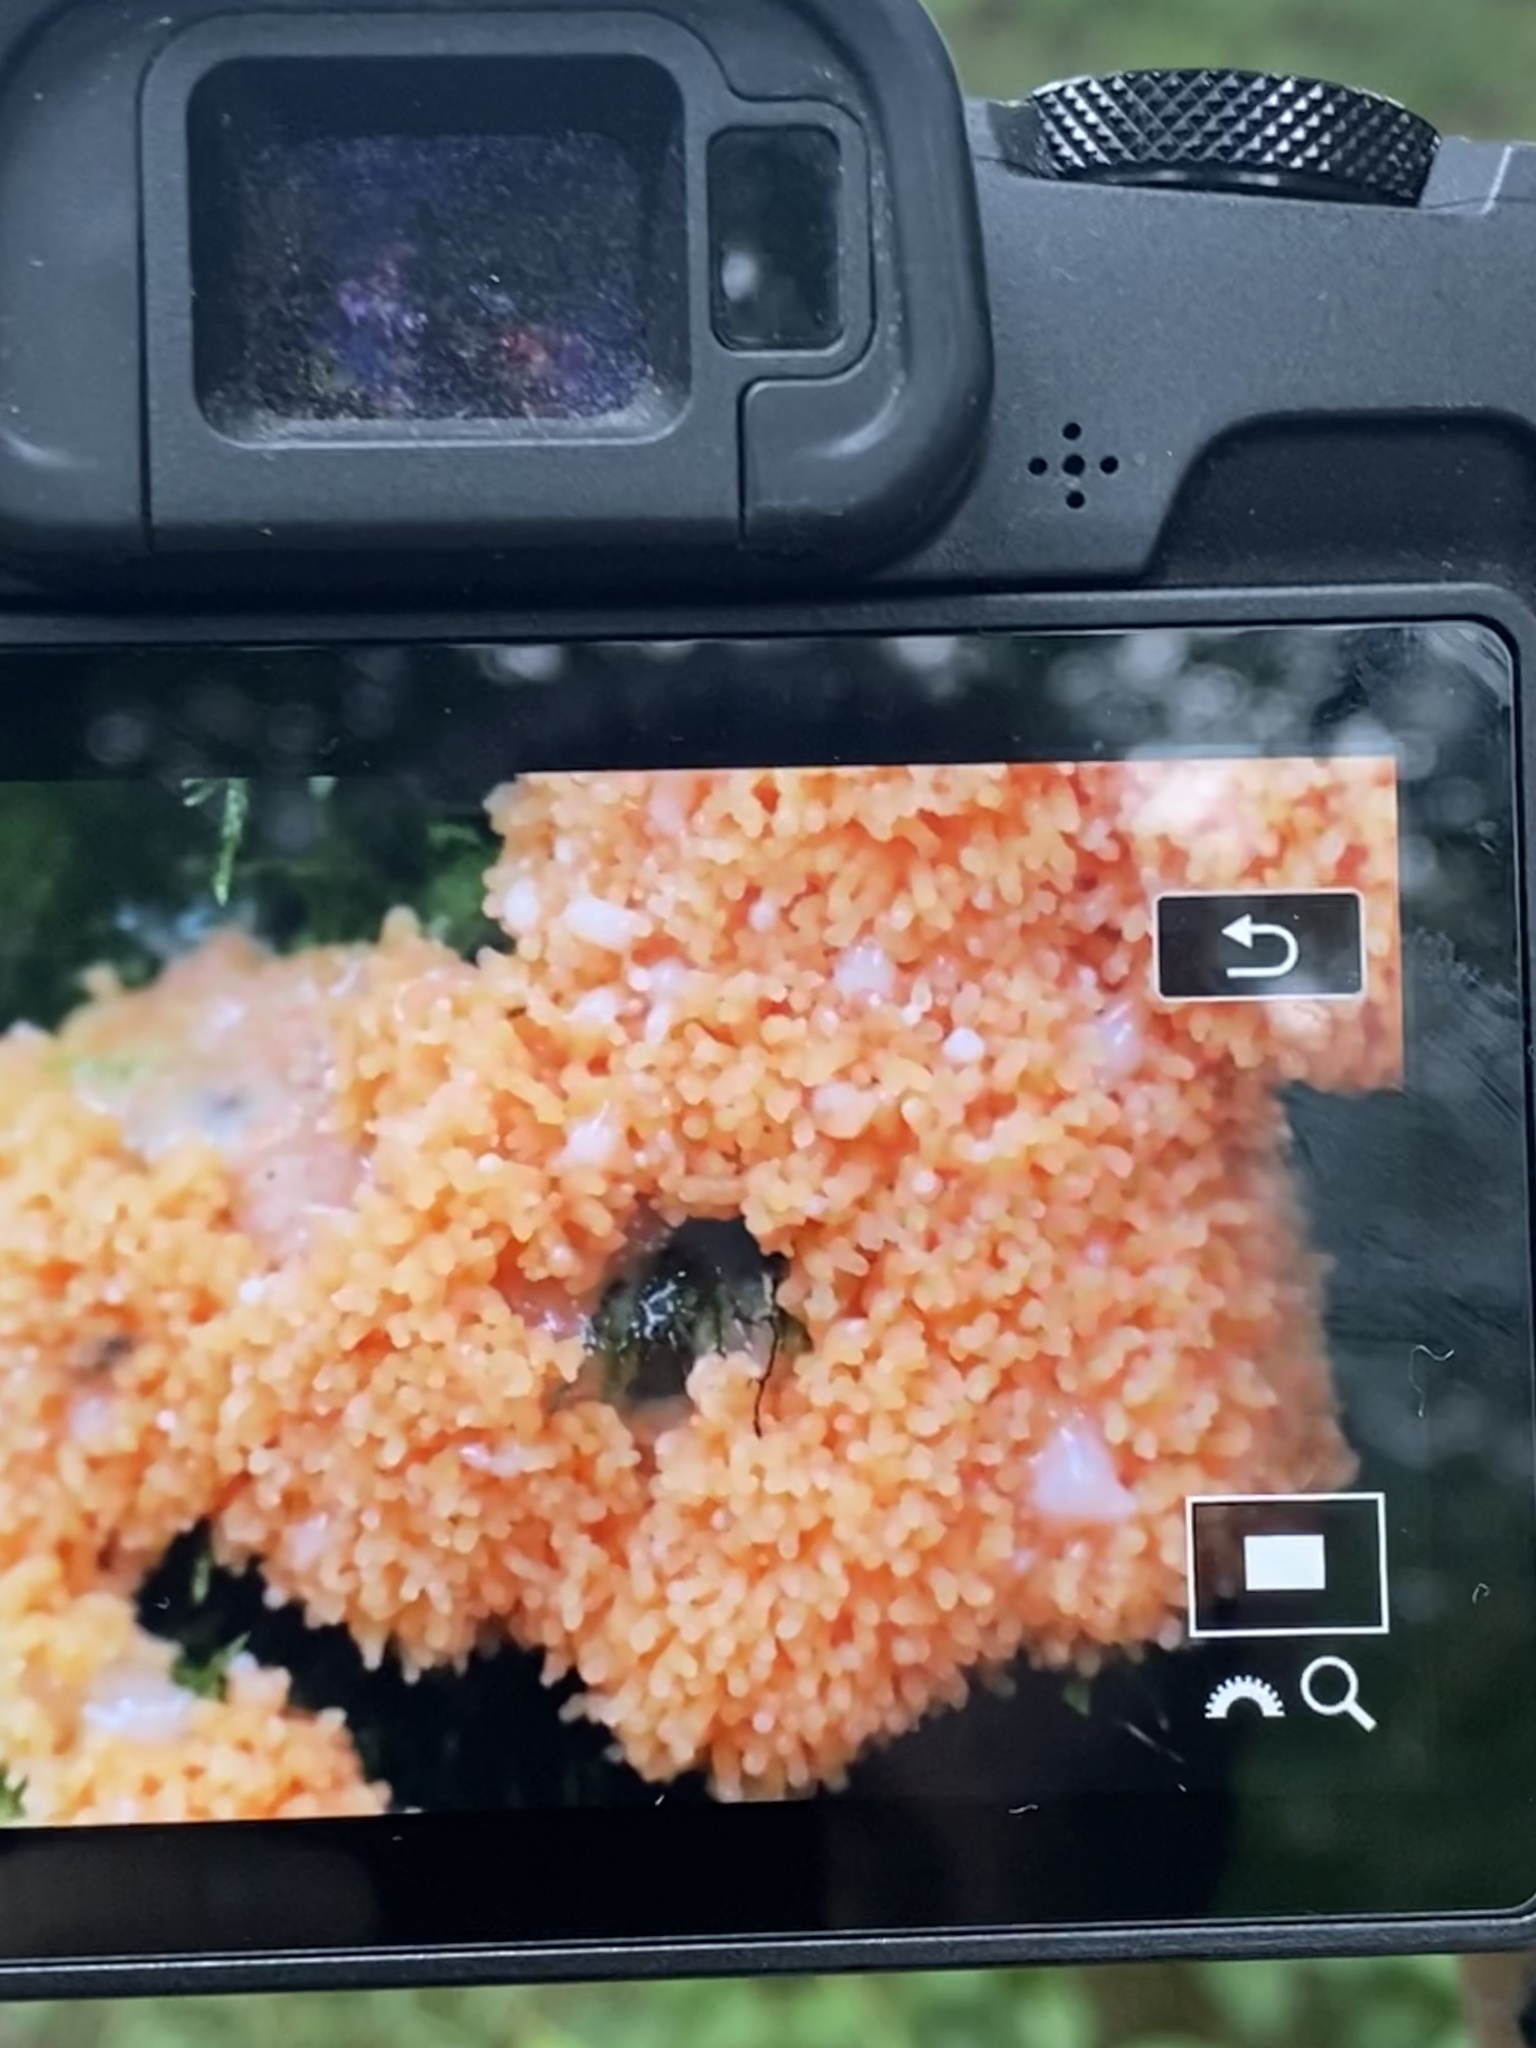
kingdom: Protozoa
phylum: Mycetozoa
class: Myxomycetes
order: Cribrariales
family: Tubiferaceae
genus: Tubifera
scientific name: Tubifera ferruginosa
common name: Red raspberry slime mold
